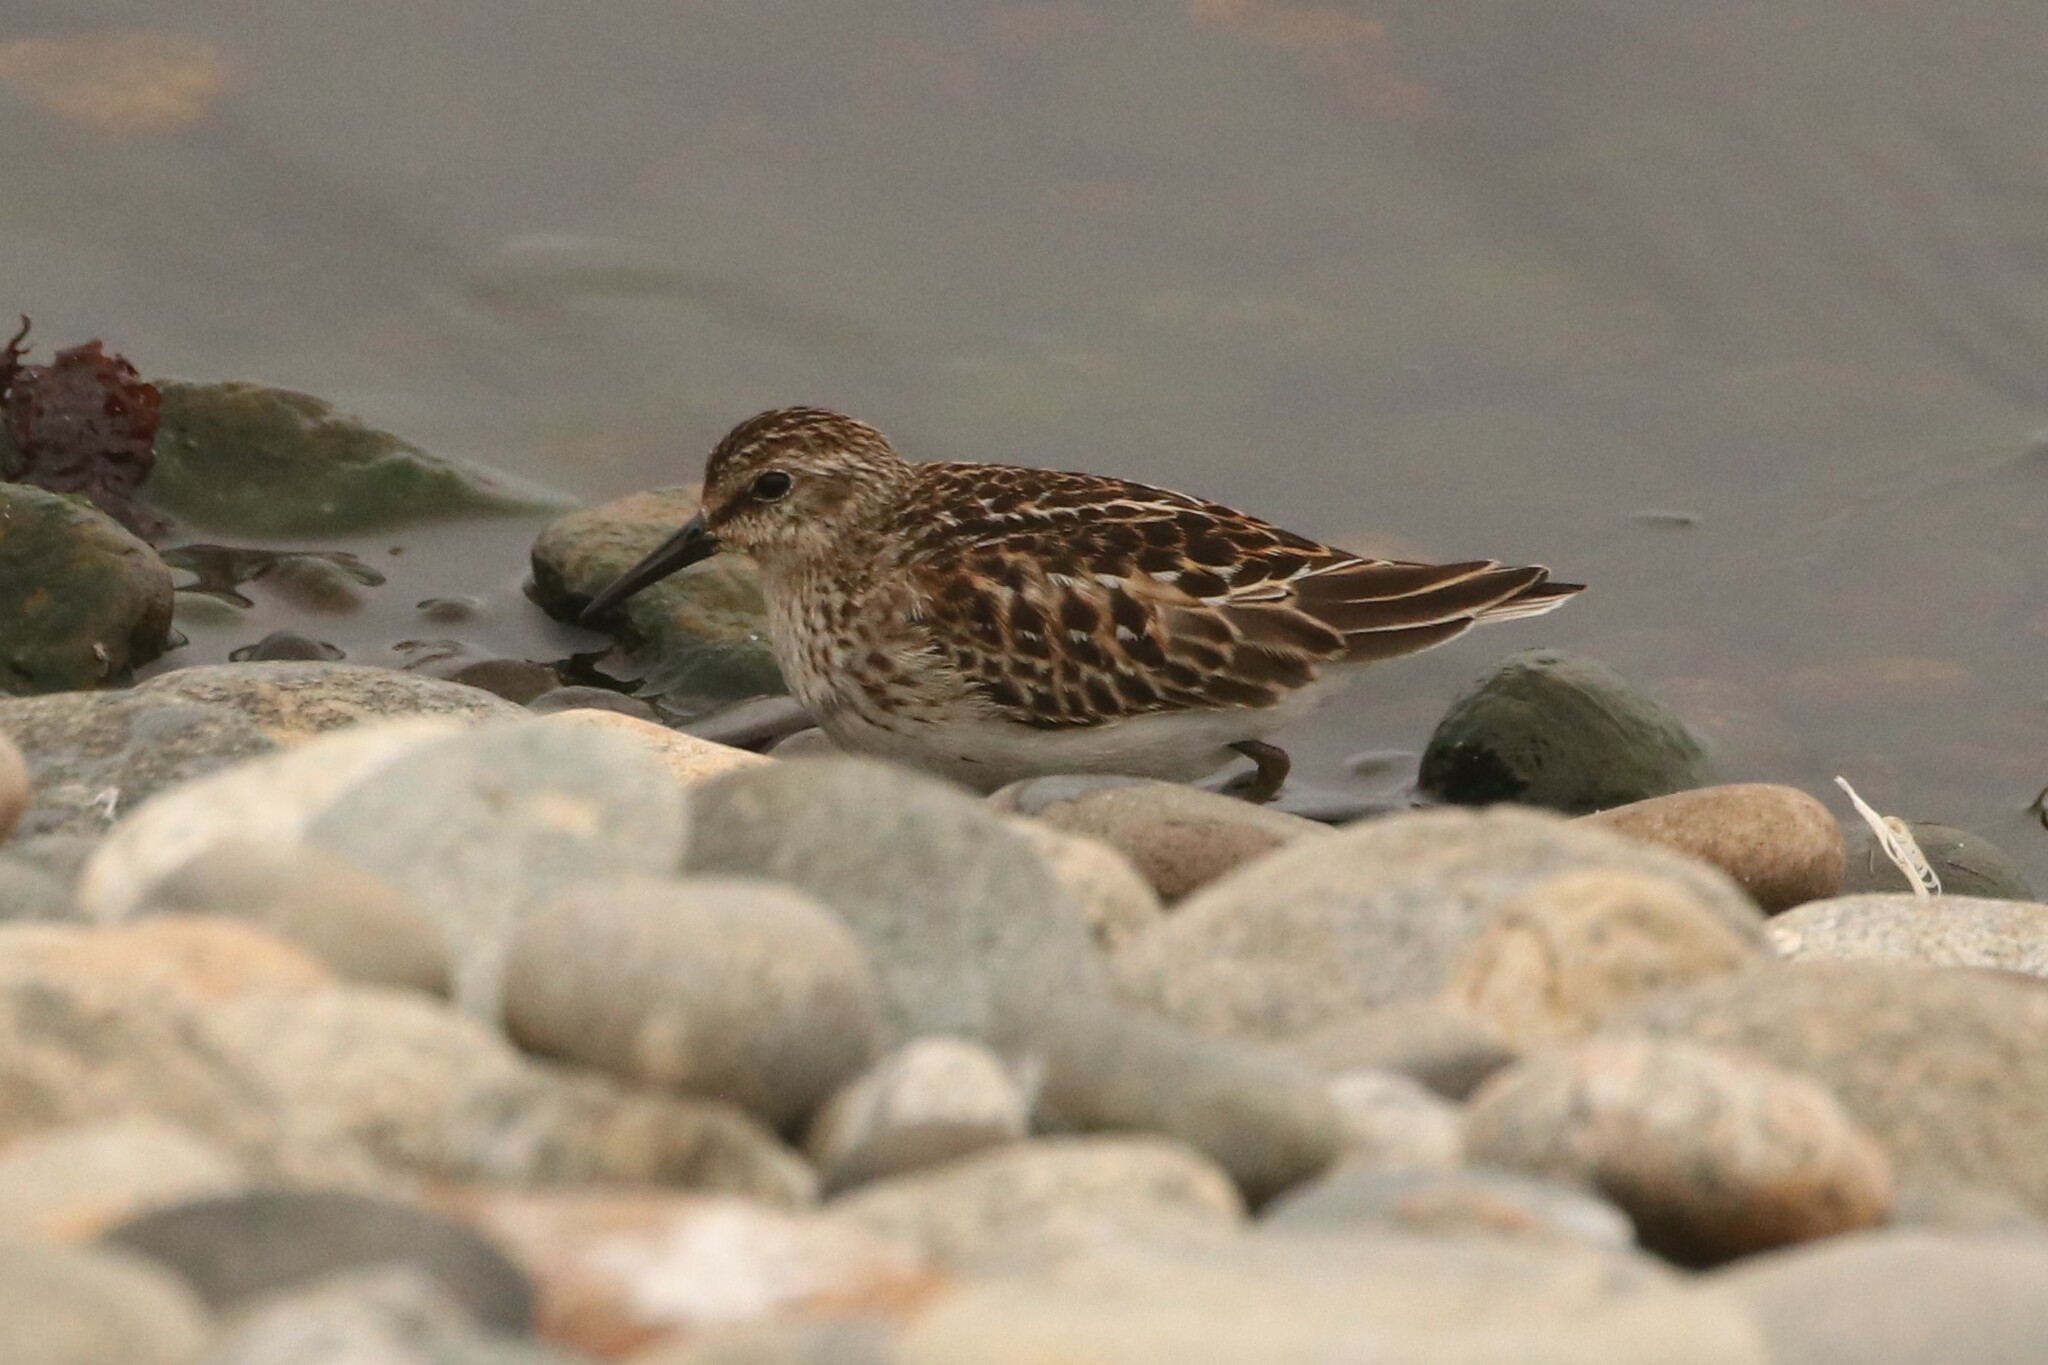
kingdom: Animalia
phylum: Chordata
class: Aves
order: Charadriiformes
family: Scolopacidae
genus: Calidris
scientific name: Calidris minutilla
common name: Least sandpiper
